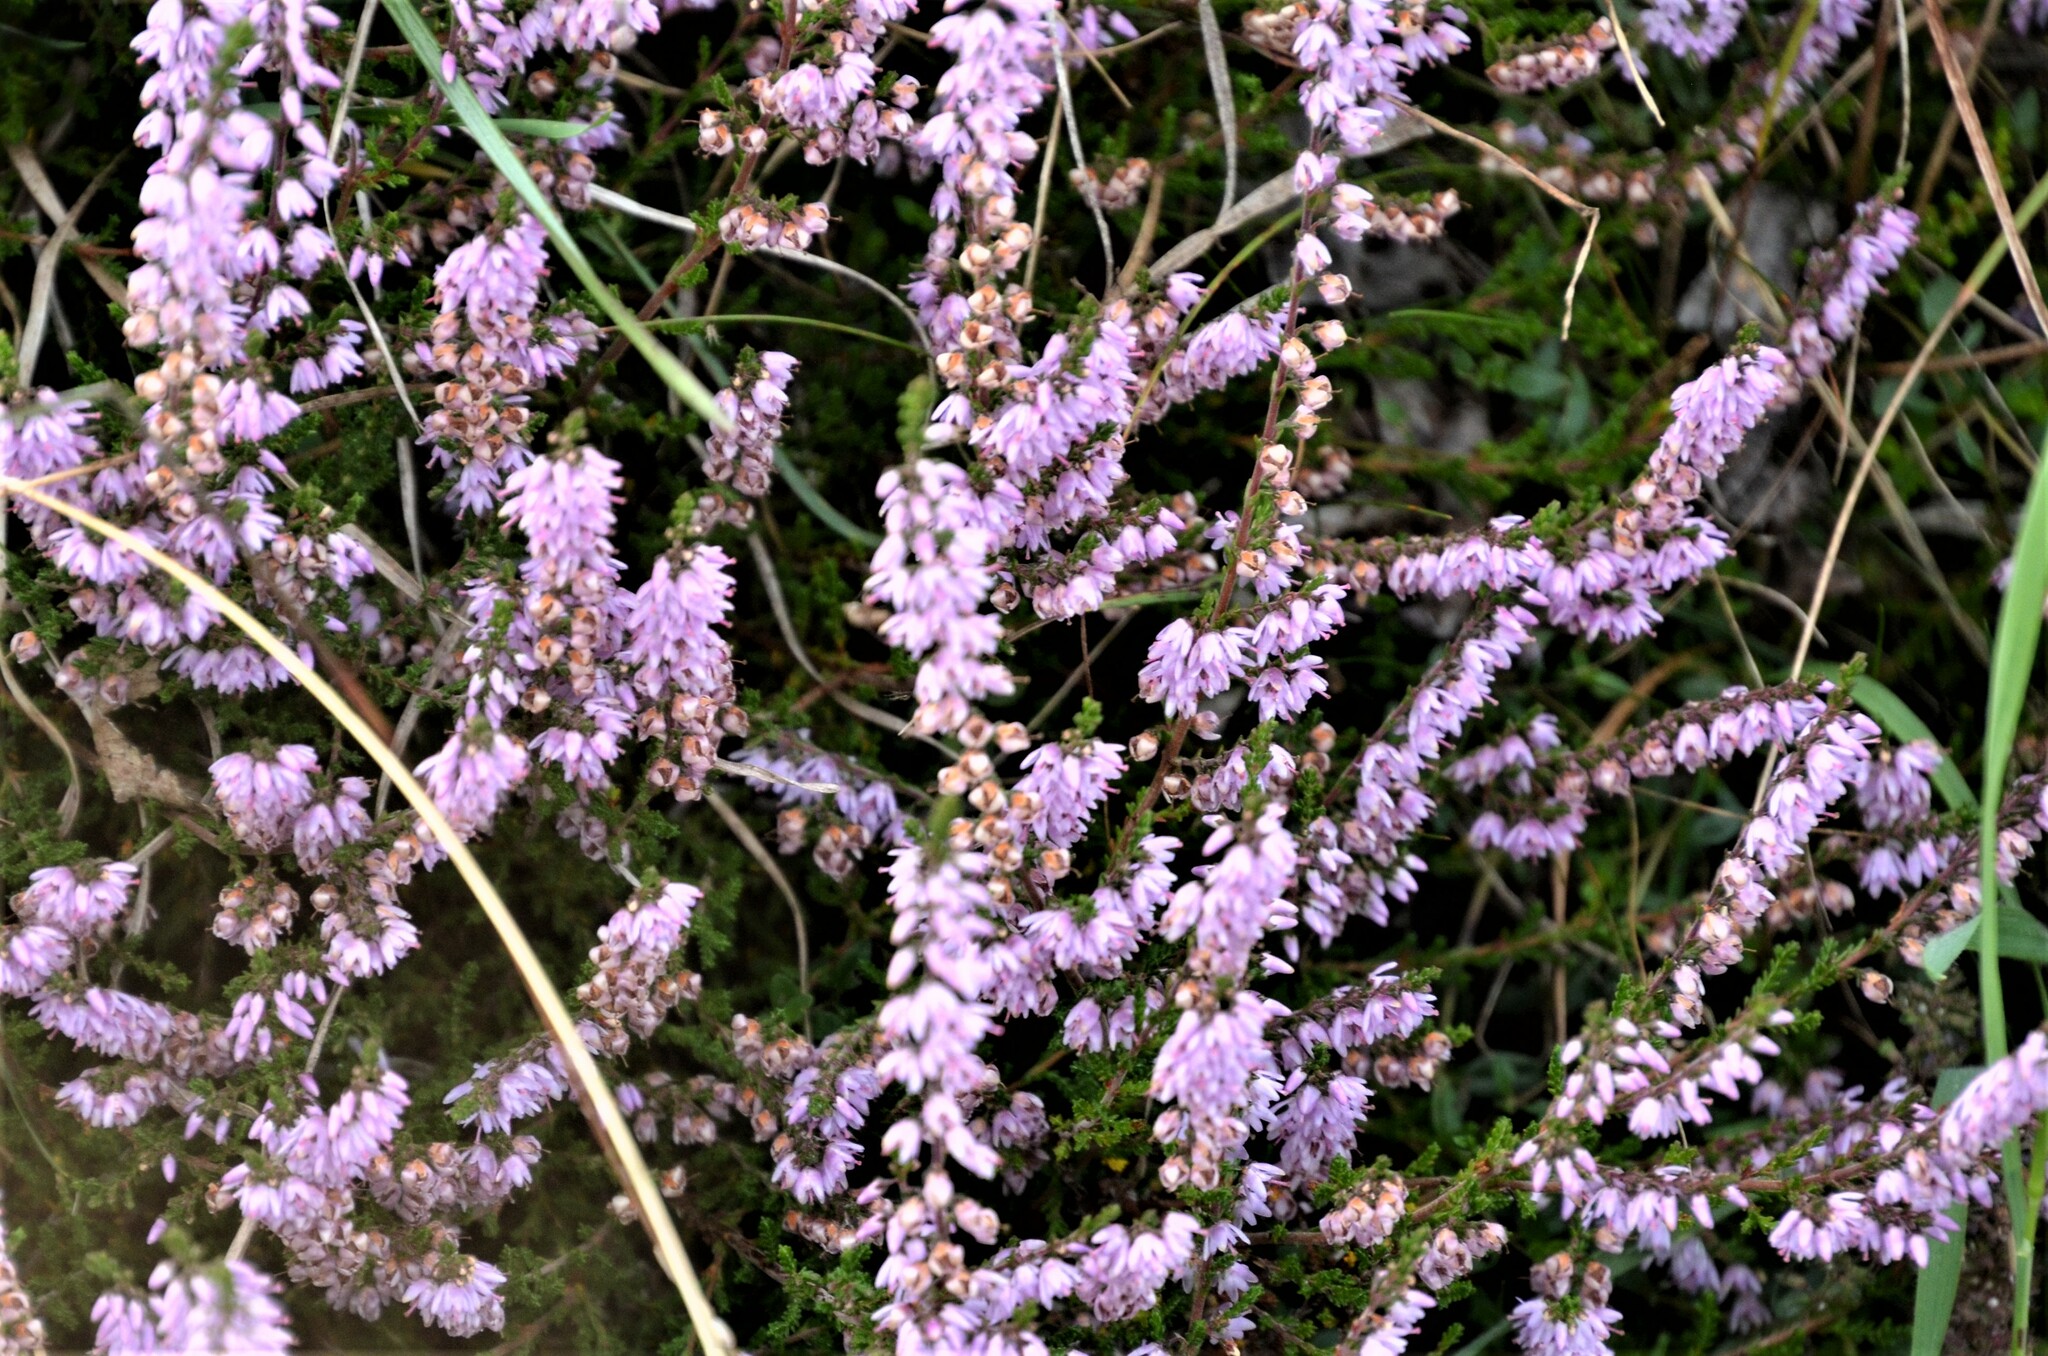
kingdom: Plantae
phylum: Tracheophyta
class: Magnoliopsida
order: Ericales
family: Ericaceae
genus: Calluna
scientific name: Calluna vulgaris
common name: Heather
